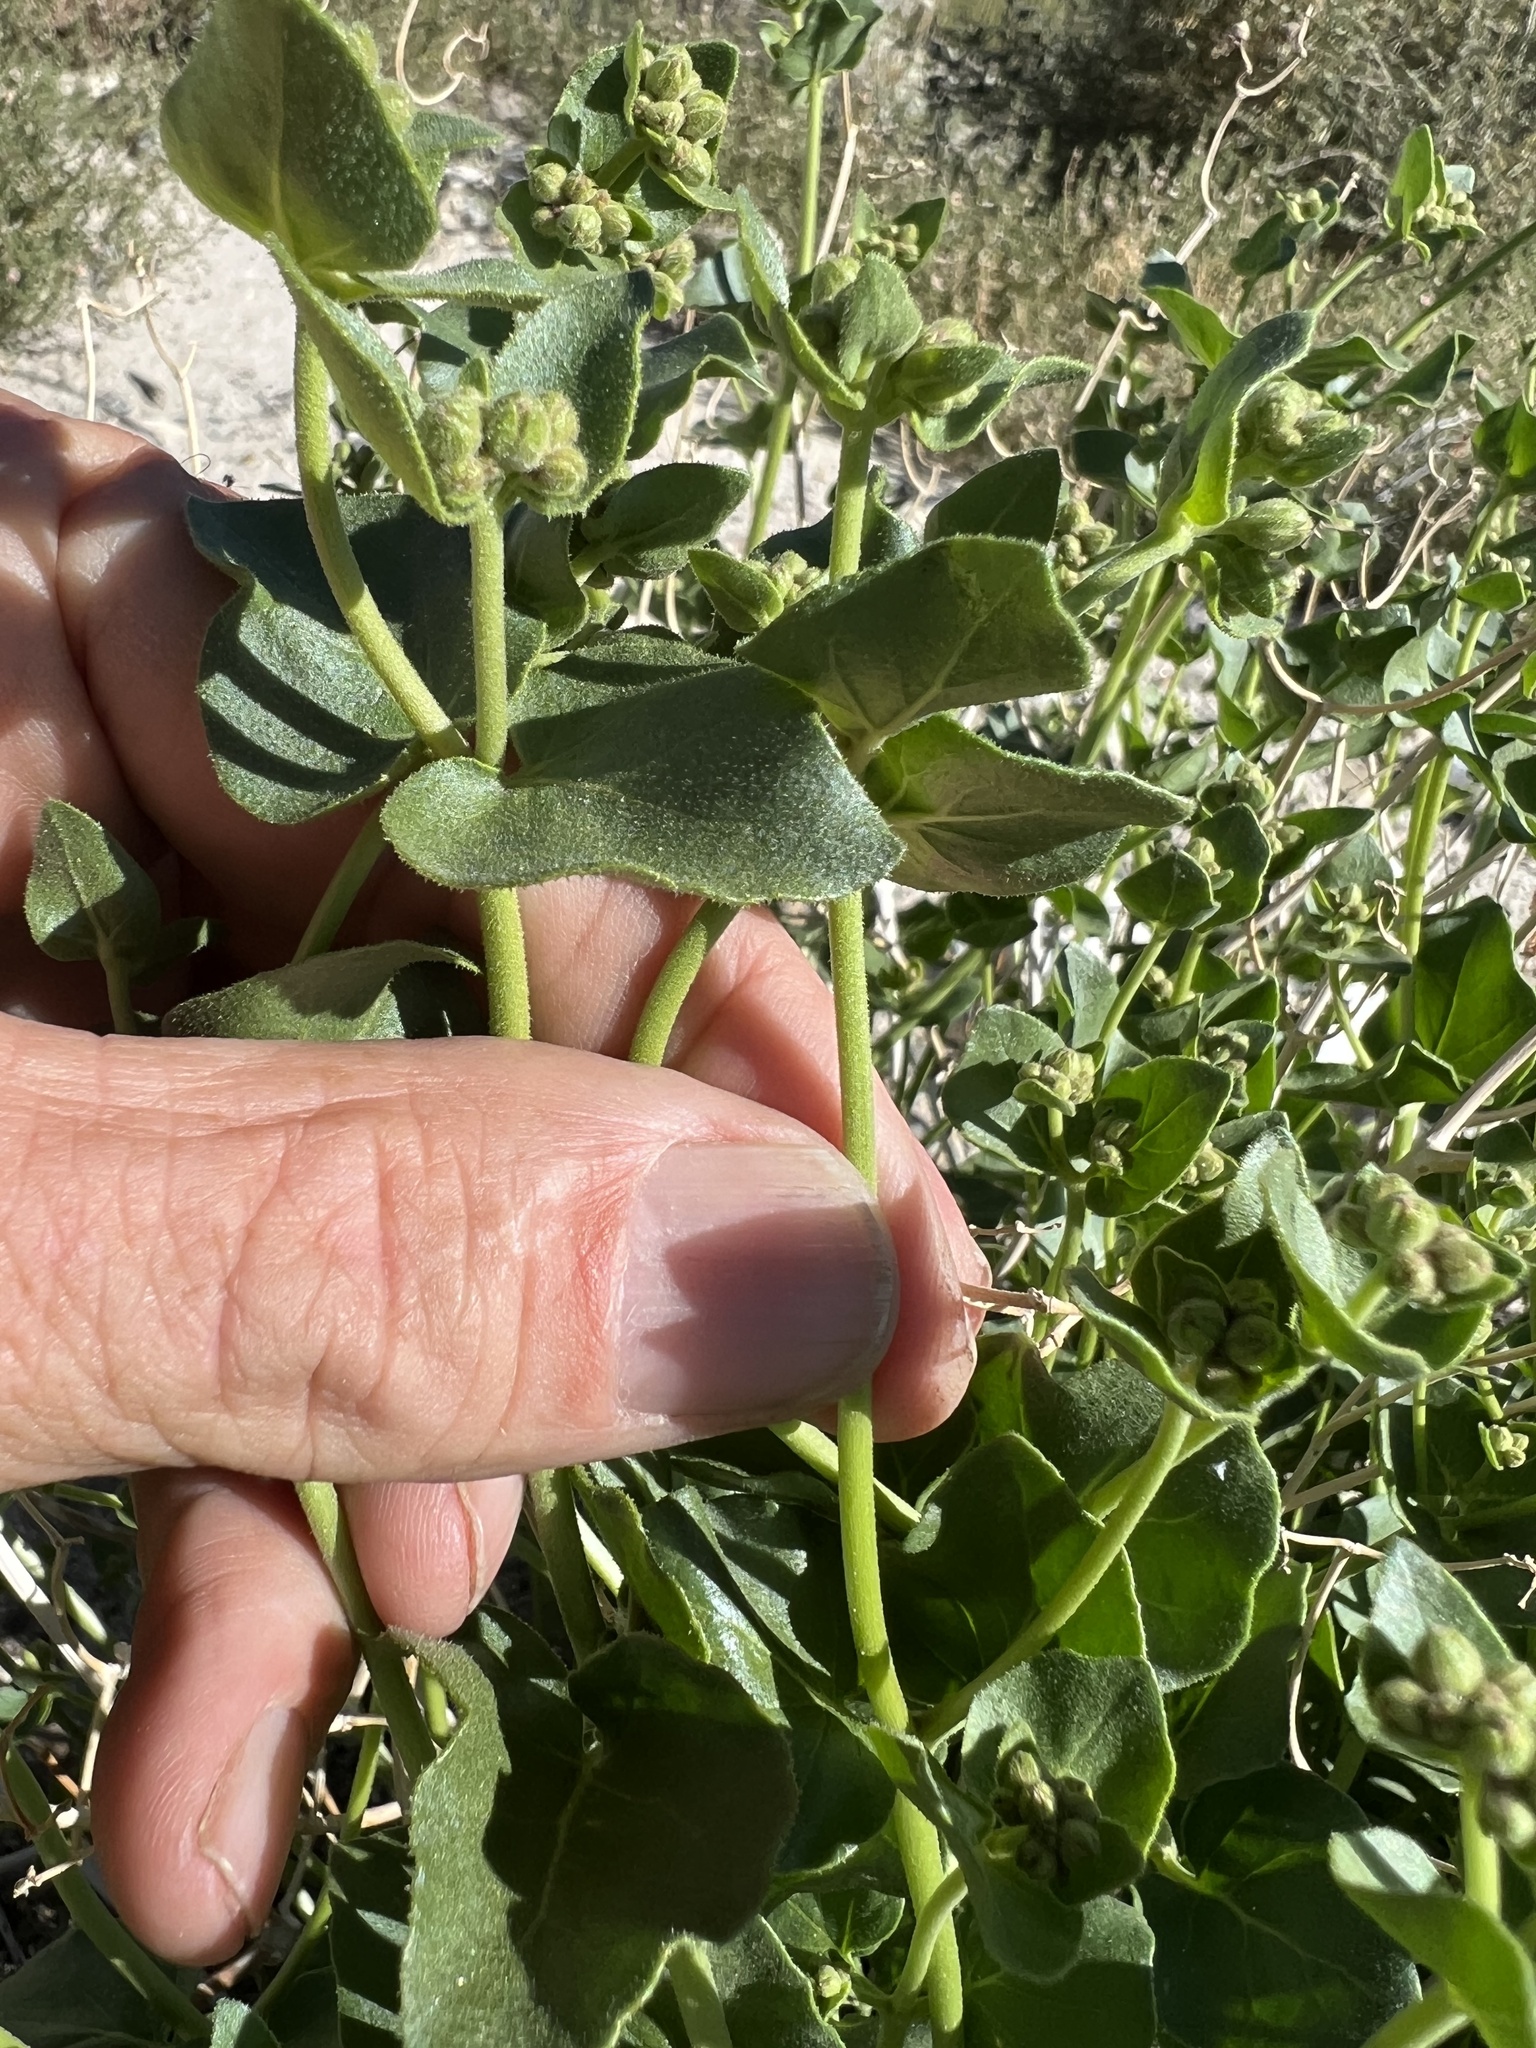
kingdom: Plantae
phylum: Tracheophyta
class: Magnoliopsida
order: Caryophyllales
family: Nyctaginaceae
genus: Mirabilis
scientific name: Mirabilis laevis
